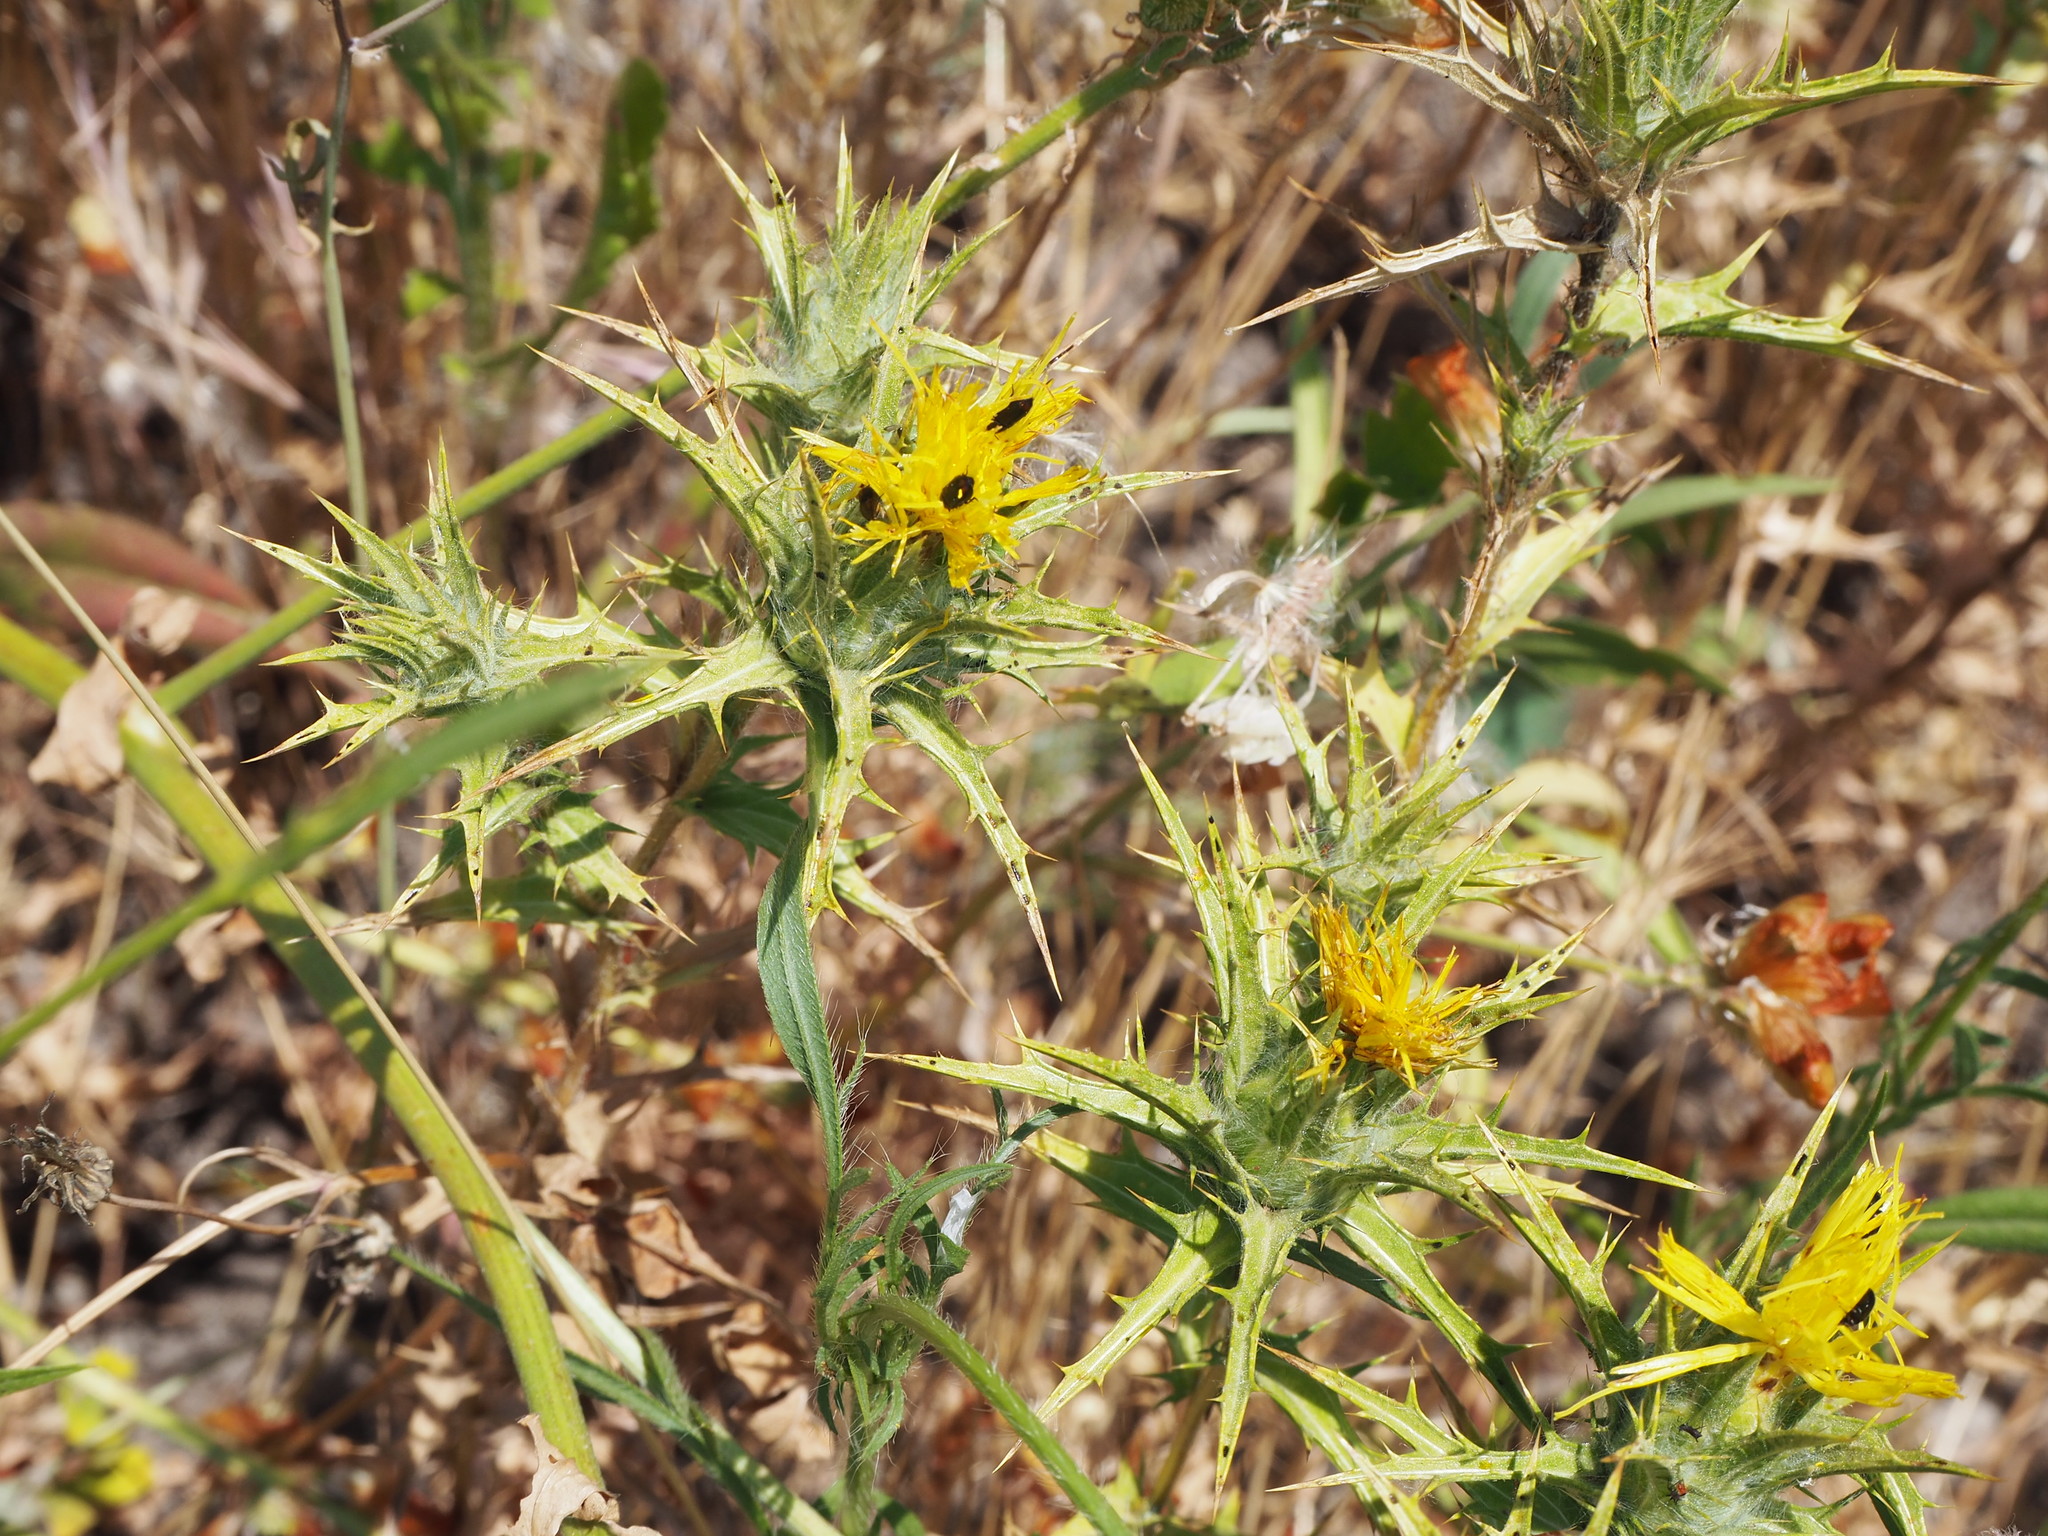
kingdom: Plantae
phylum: Tracheophyta
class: Magnoliopsida
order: Asterales
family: Asteraceae
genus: Carthamus
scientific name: Carthamus lanatus
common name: Downy safflower
